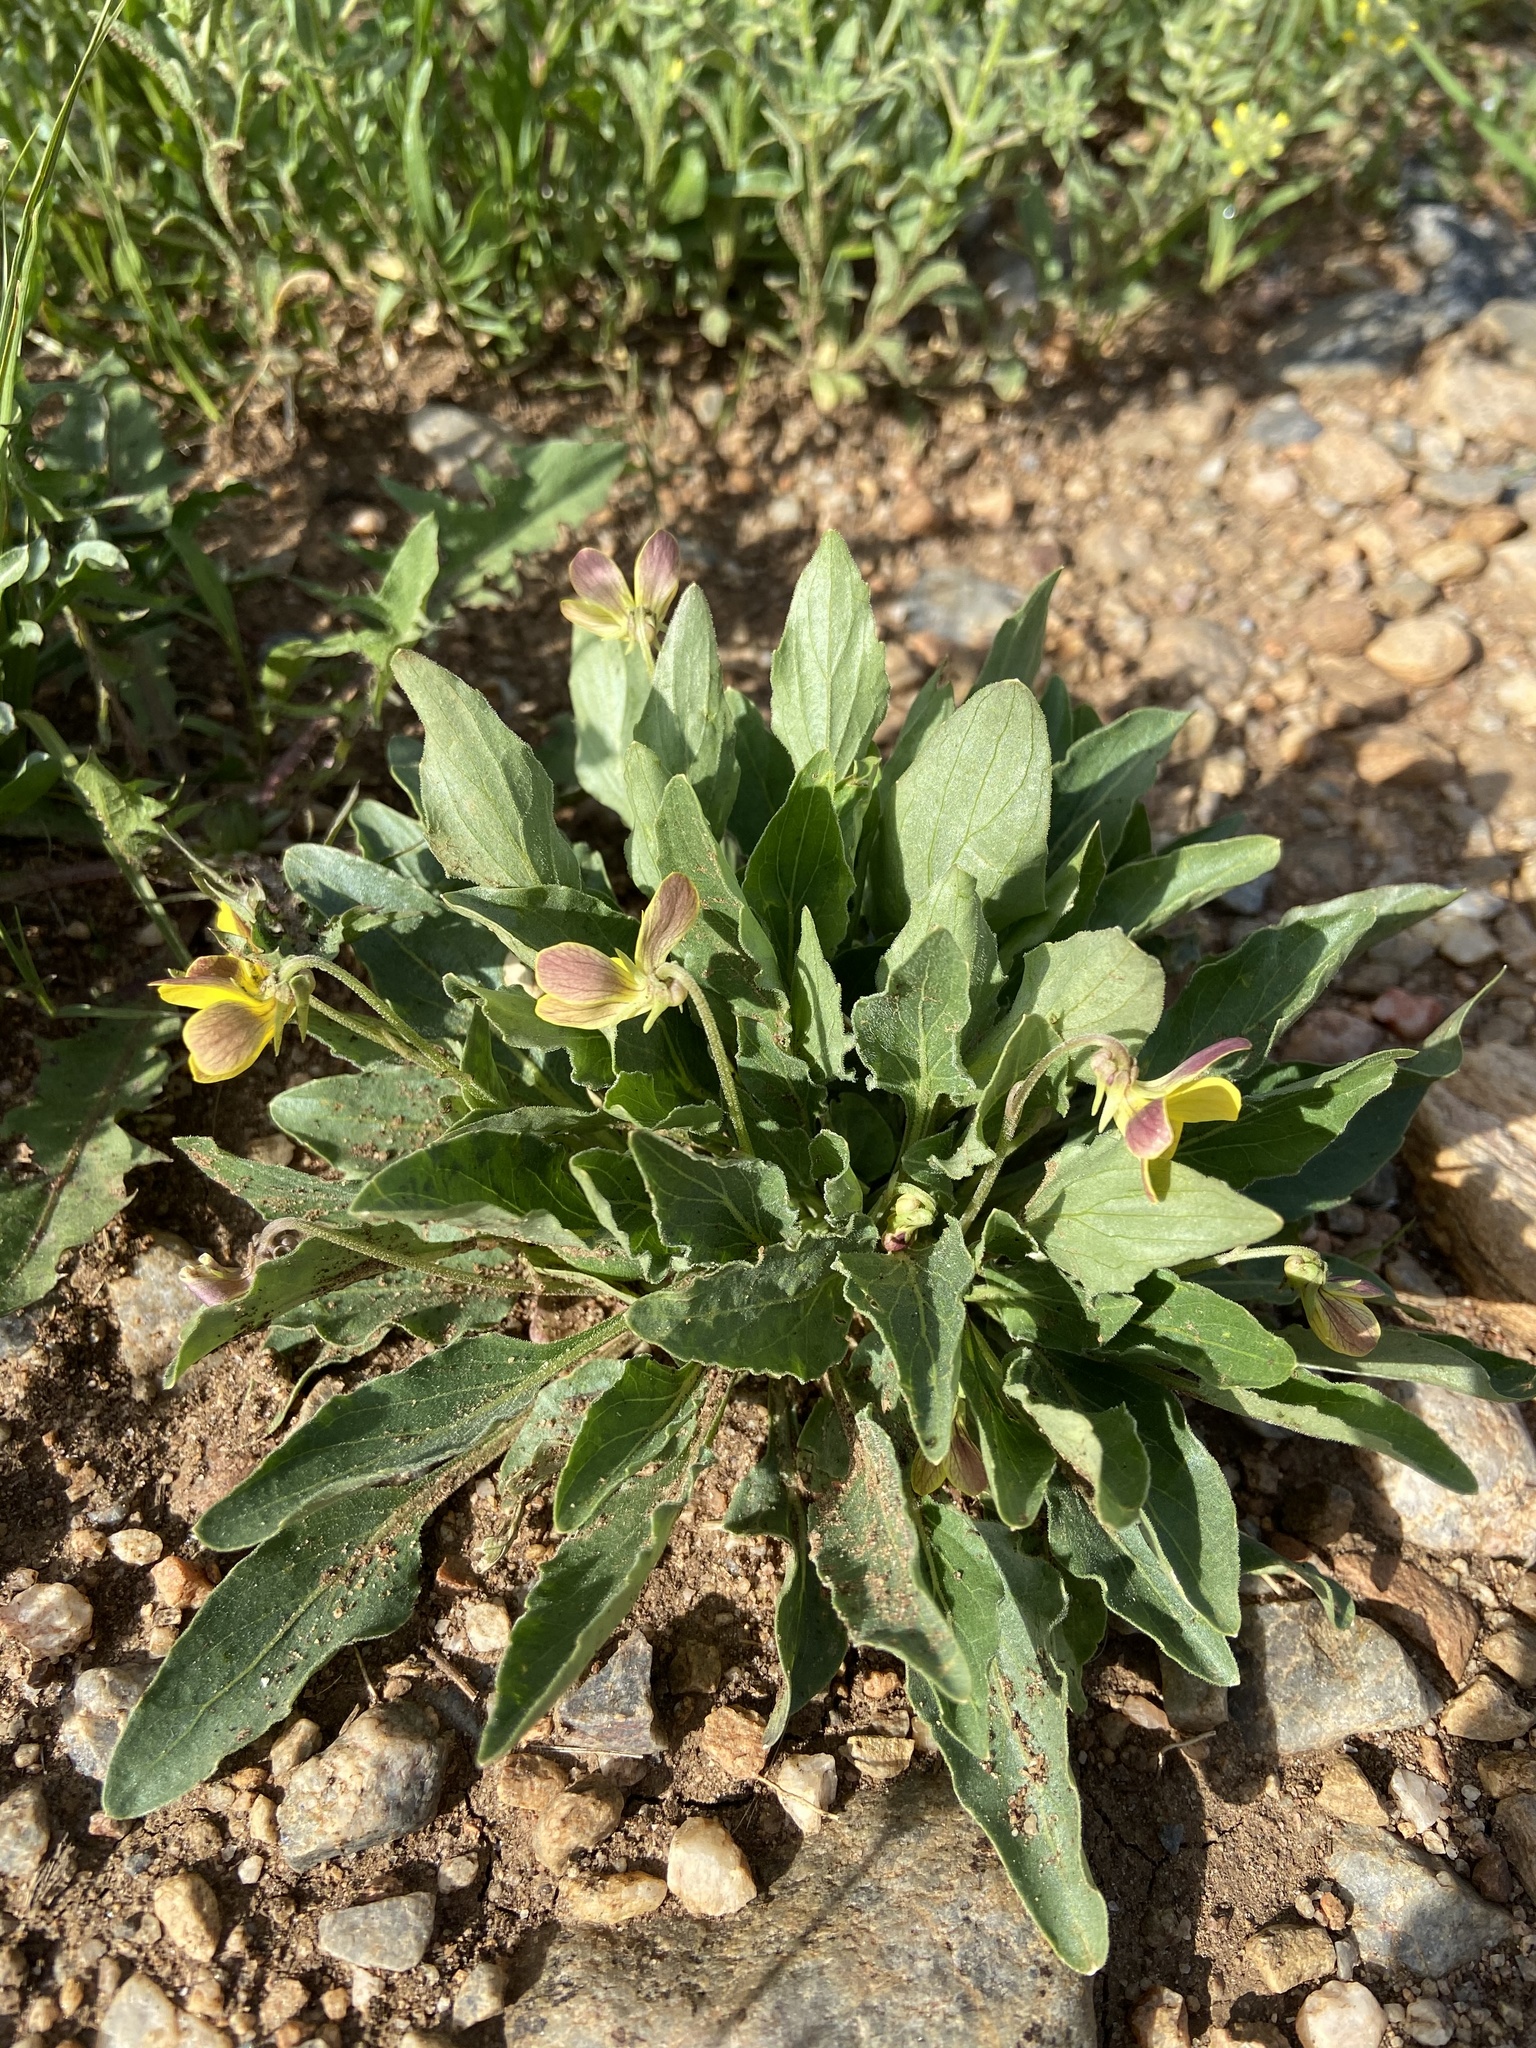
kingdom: Plantae
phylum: Tracheophyta
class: Magnoliopsida
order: Malpighiales
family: Violaceae
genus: Viola
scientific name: Viola nuttallii
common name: Yellow prairie violet
